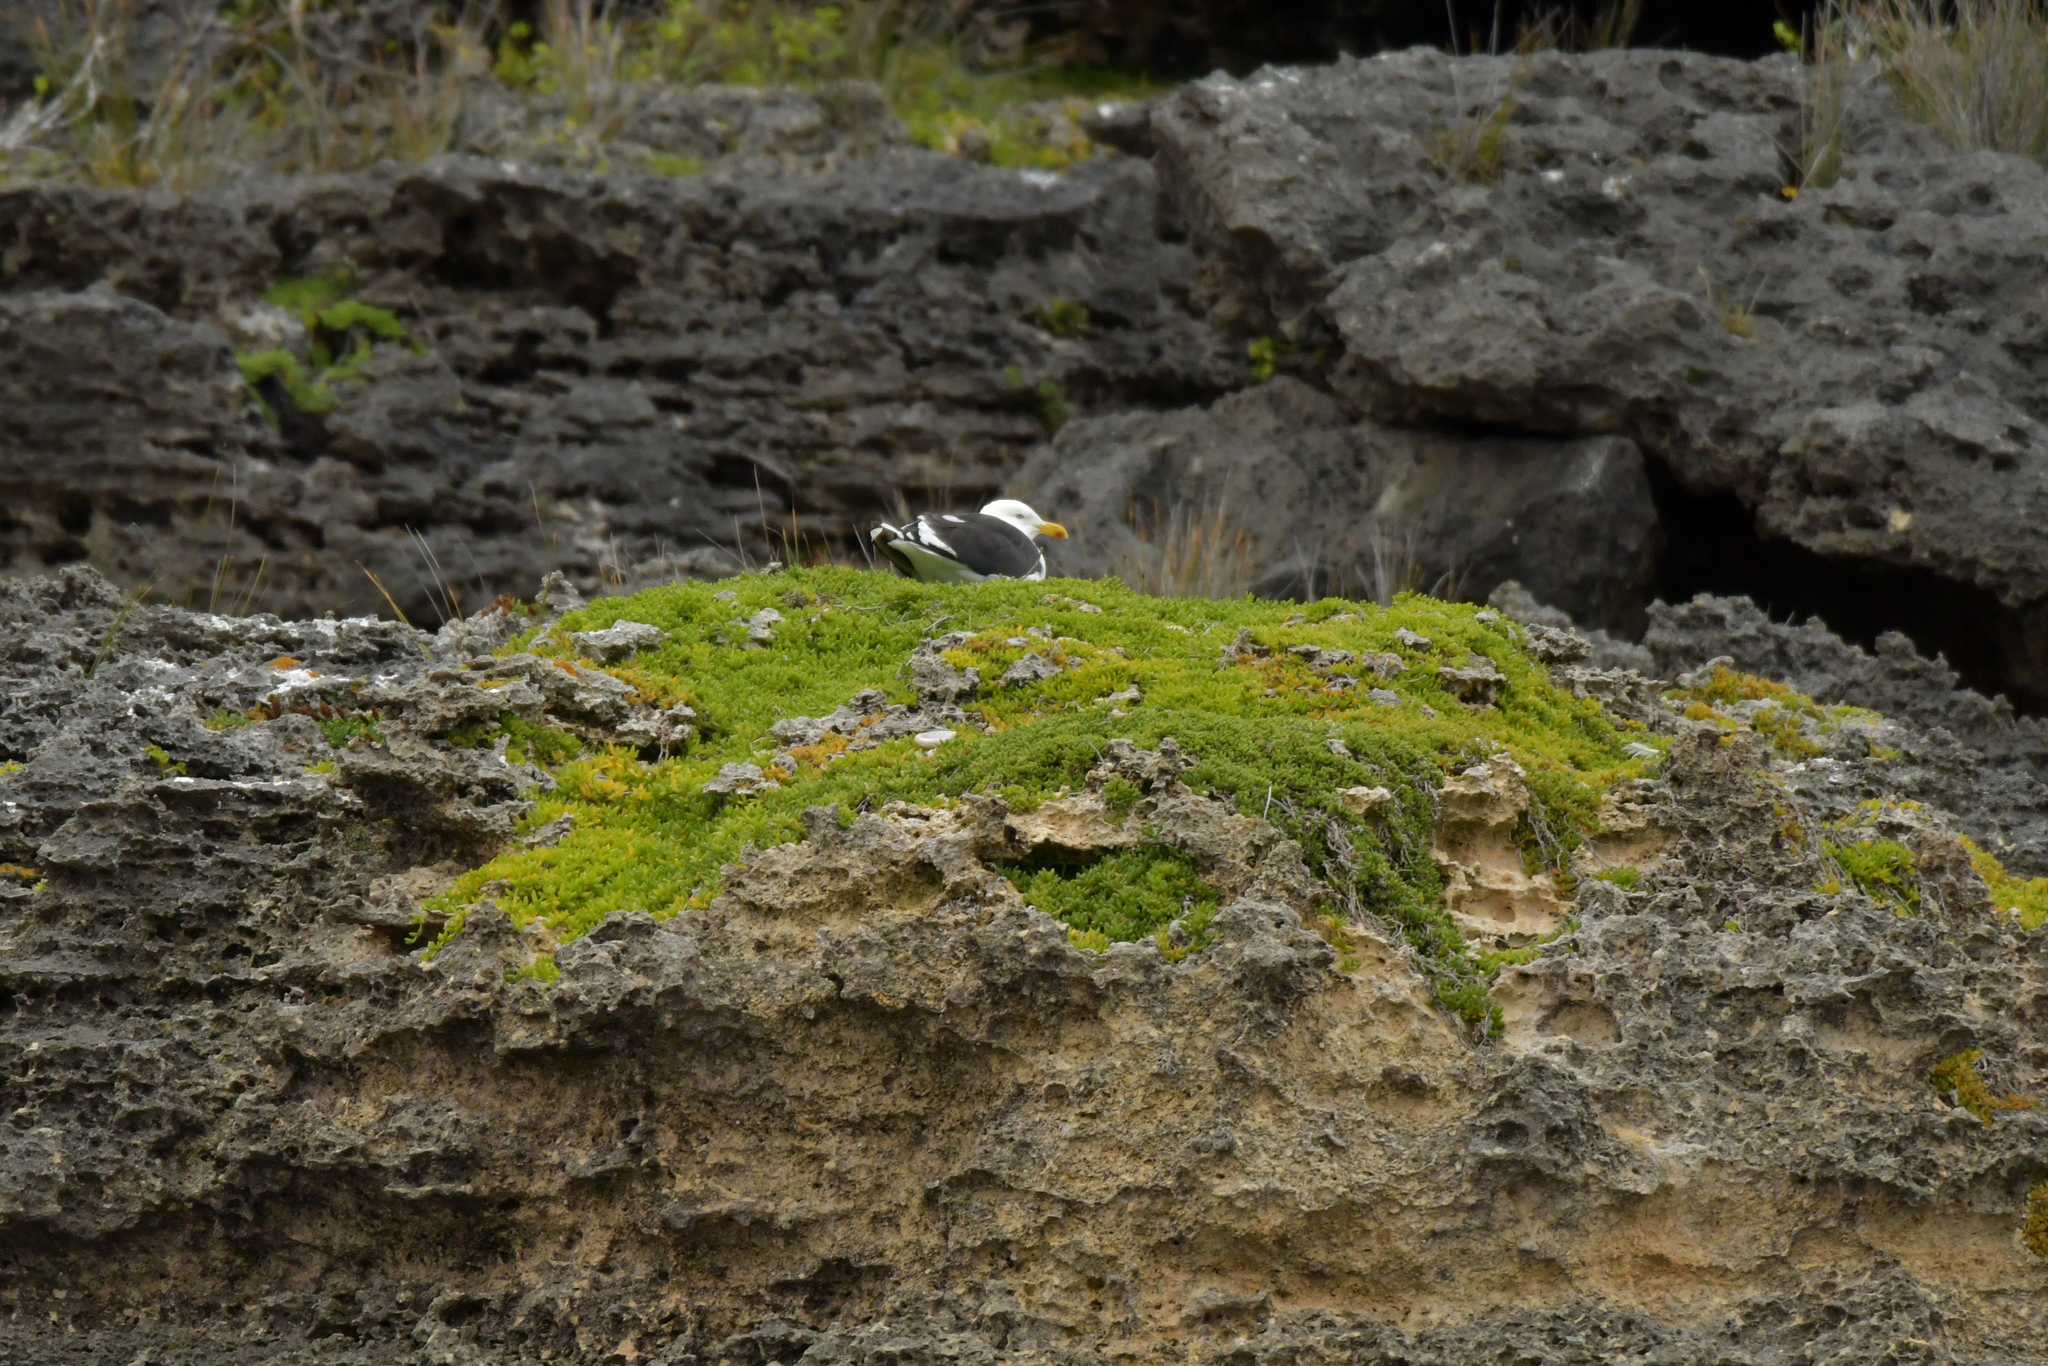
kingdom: Animalia
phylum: Chordata
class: Aves
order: Charadriiformes
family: Laridae
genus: Larus
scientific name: Larus dominicanus
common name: Kelp gull
